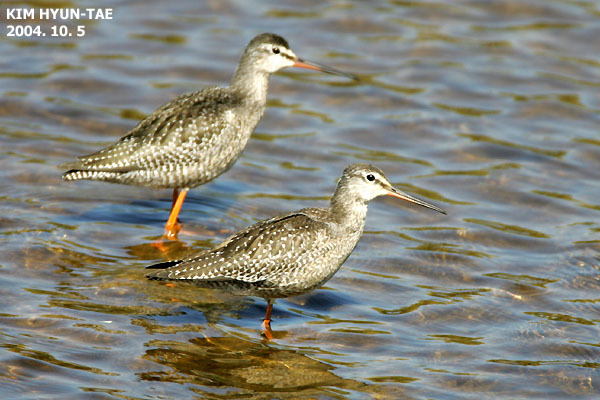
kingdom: Animalia
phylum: Chordata
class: Aves
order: Charadriiformes
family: Scolopacidae
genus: Tringa
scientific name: Tringa erythropus
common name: Spotted redshank
